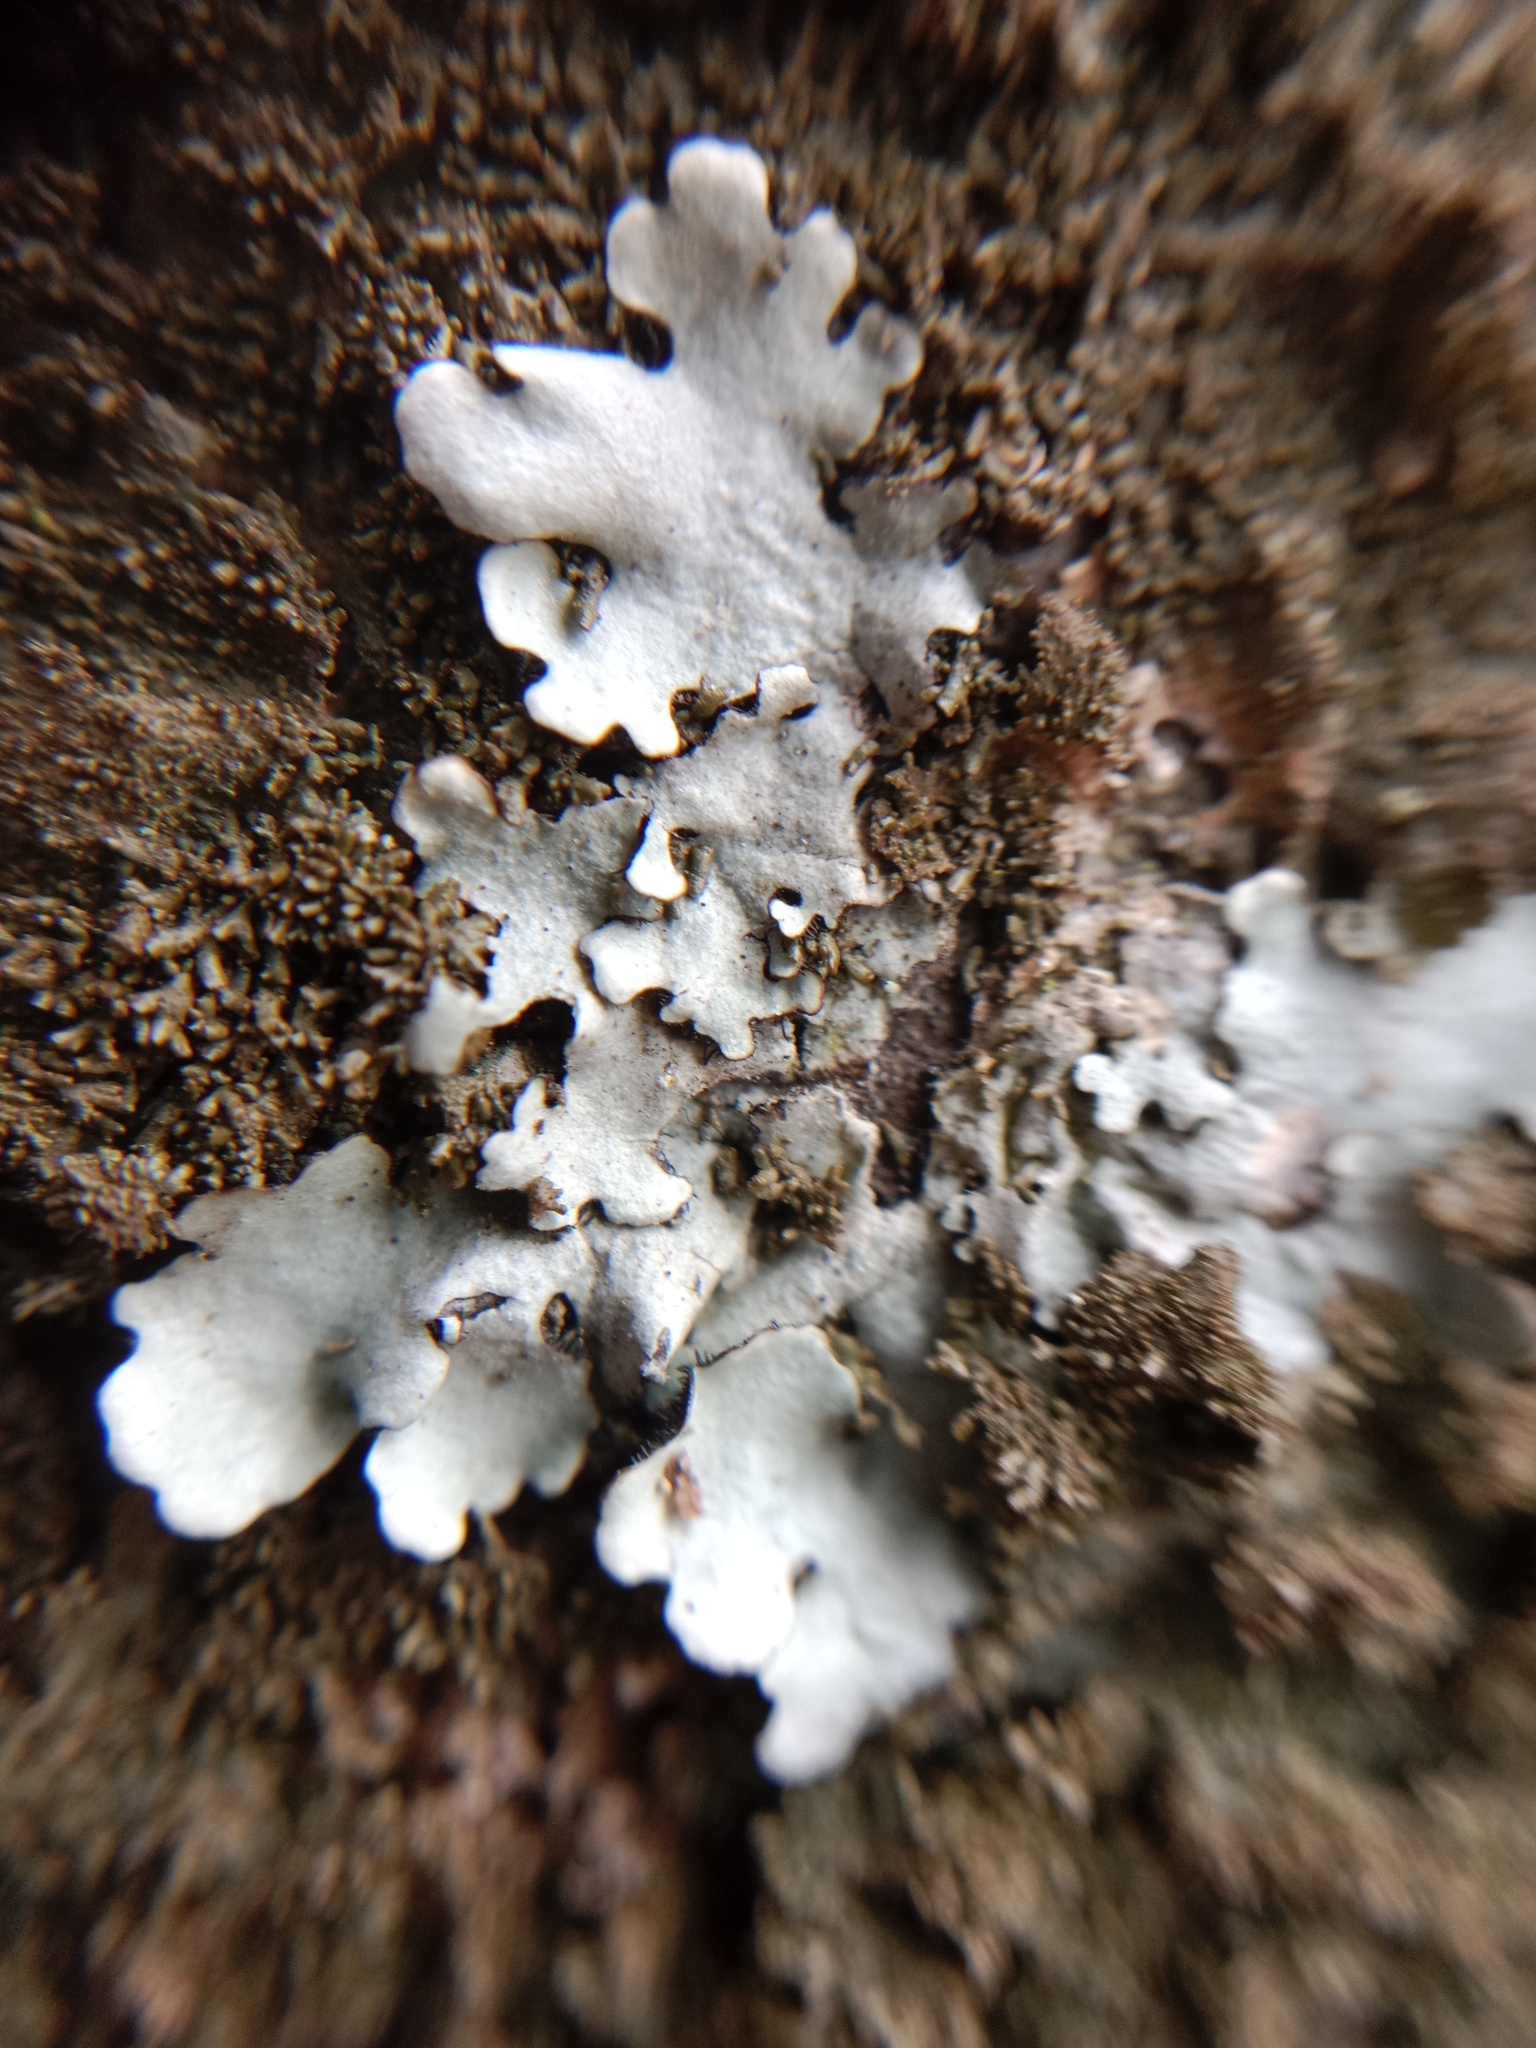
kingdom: Fungi
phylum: Ascomycota
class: Lecanoromycetes
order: Lecanorales
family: Parmeliaceae
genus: Parmelina
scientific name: Parmelina tiliacea
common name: Linden shield lichen
